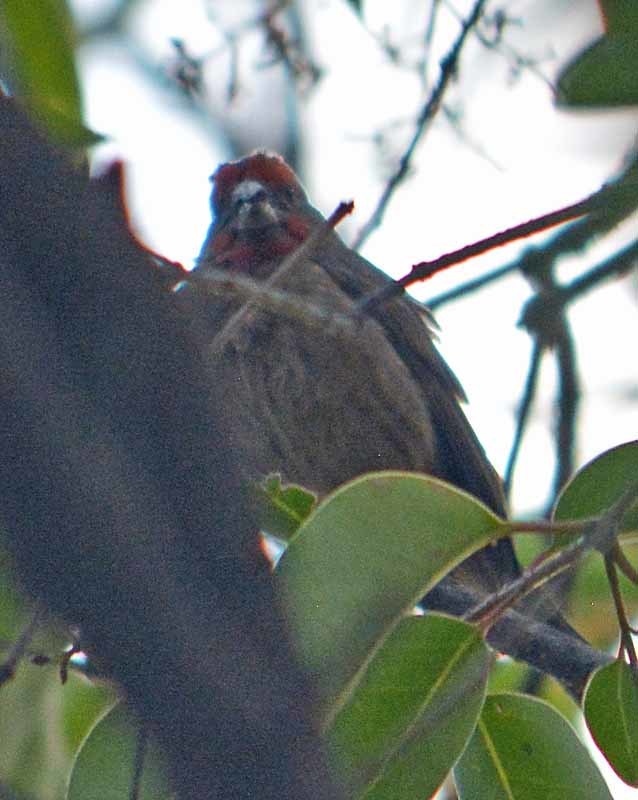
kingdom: Animalia
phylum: Chordata
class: Aves
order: Passeriformes
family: Fringillidae
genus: Haemorhous
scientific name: Haemorhous mexicanus
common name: House finch
